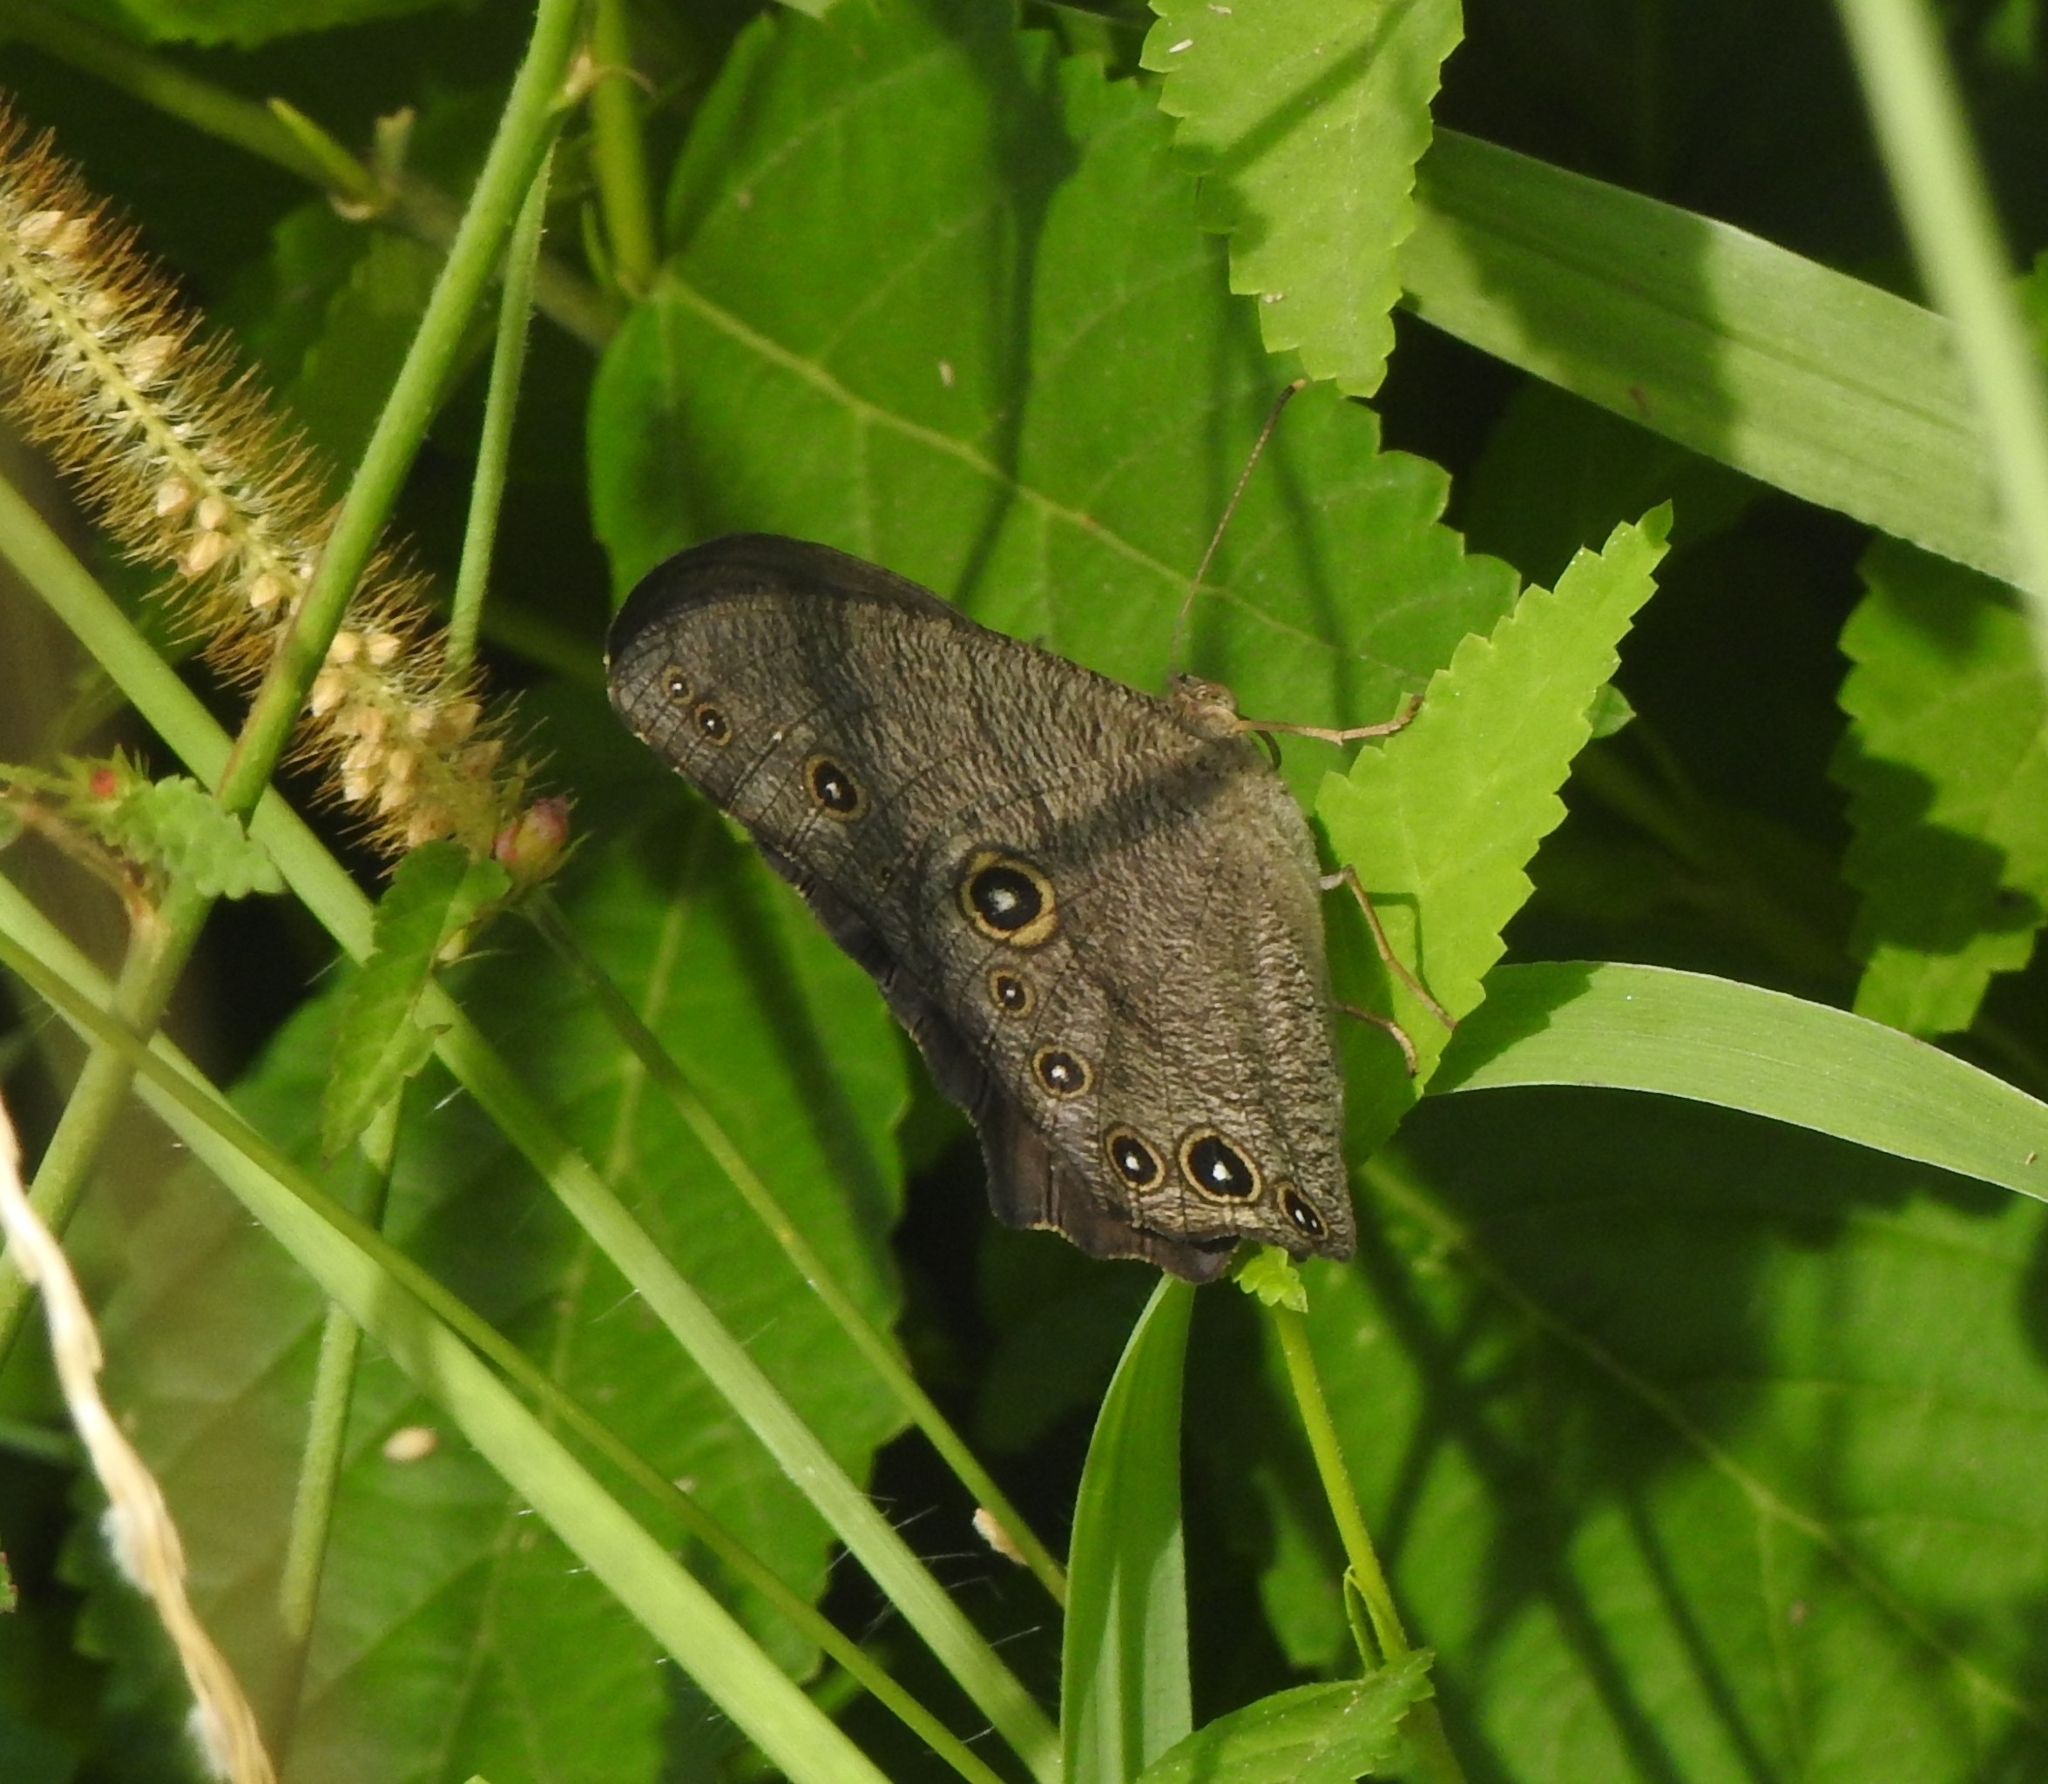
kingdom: Animalia
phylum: Arthropoda
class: Insecta
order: Lepidoptera
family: Nymphalidae
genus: Melanitis
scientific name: Melanitis leda
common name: Twilight brown
